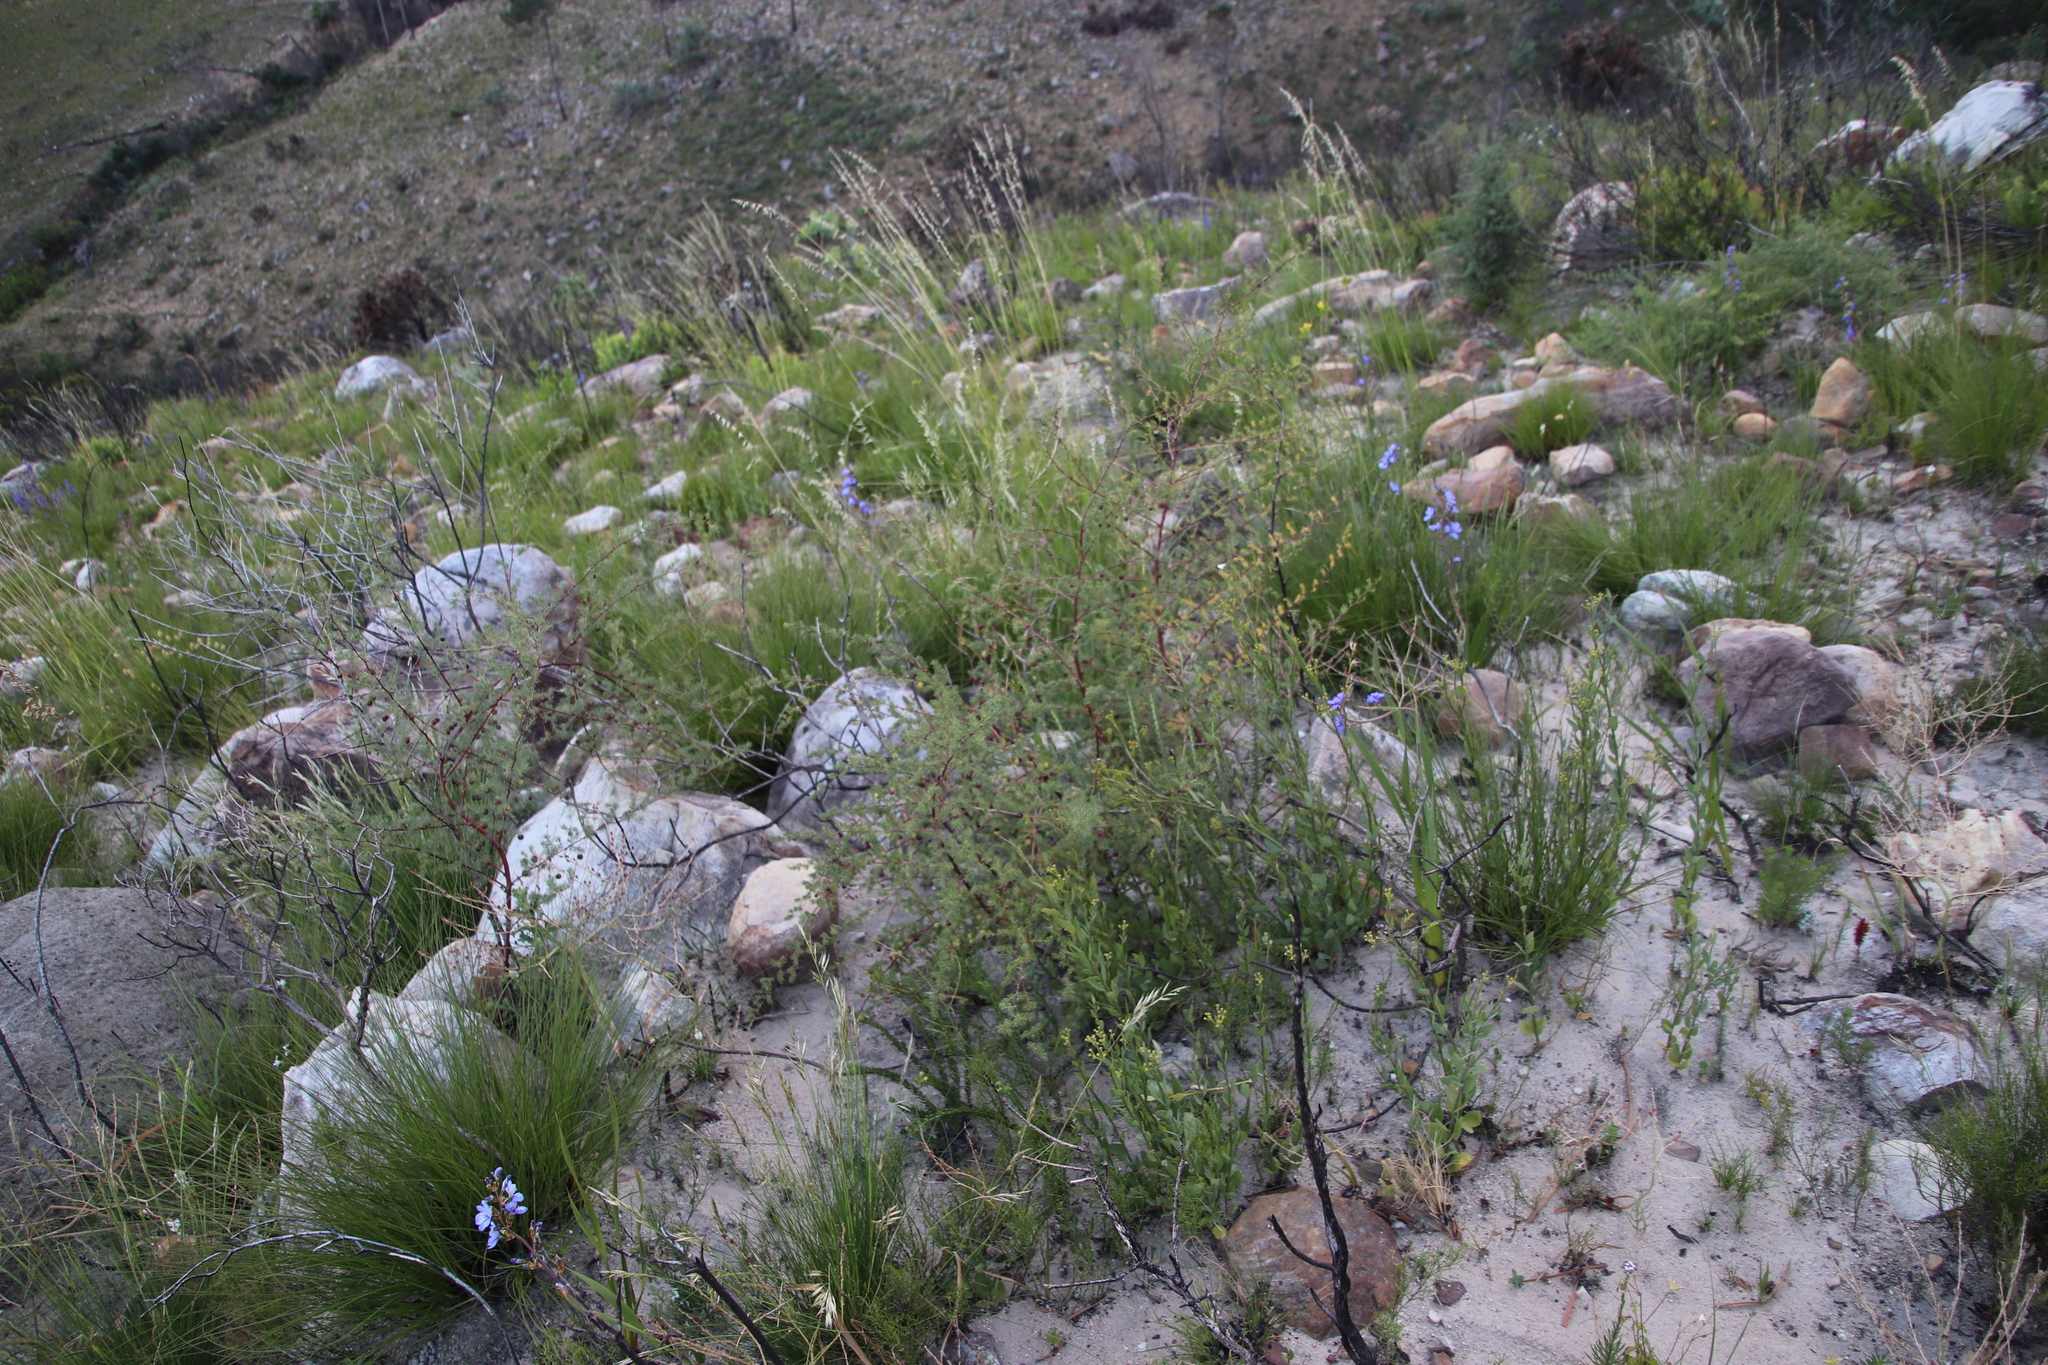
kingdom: Plantae
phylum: Tracheophyta
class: Liliopsida
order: Asparagales
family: Asparagaceae
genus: Asparagus
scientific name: Asparagus rubicundus
